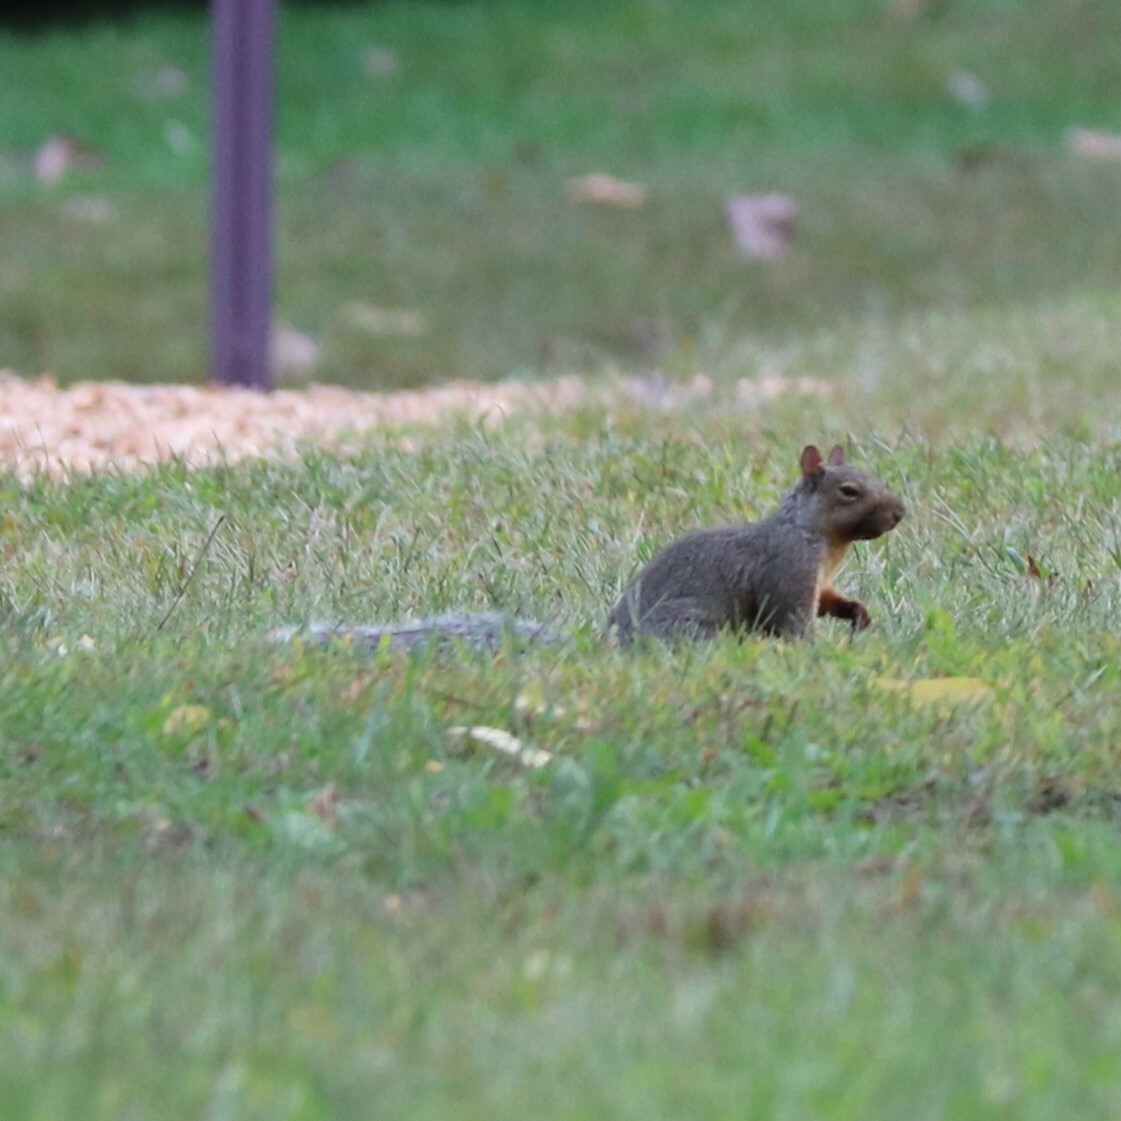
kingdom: Animalia
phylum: Chordata
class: Mammalia
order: Rodentia
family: Sciuridae
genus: Sciurus
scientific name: Sciurus carolinensis
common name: Eastern gray squirrel
